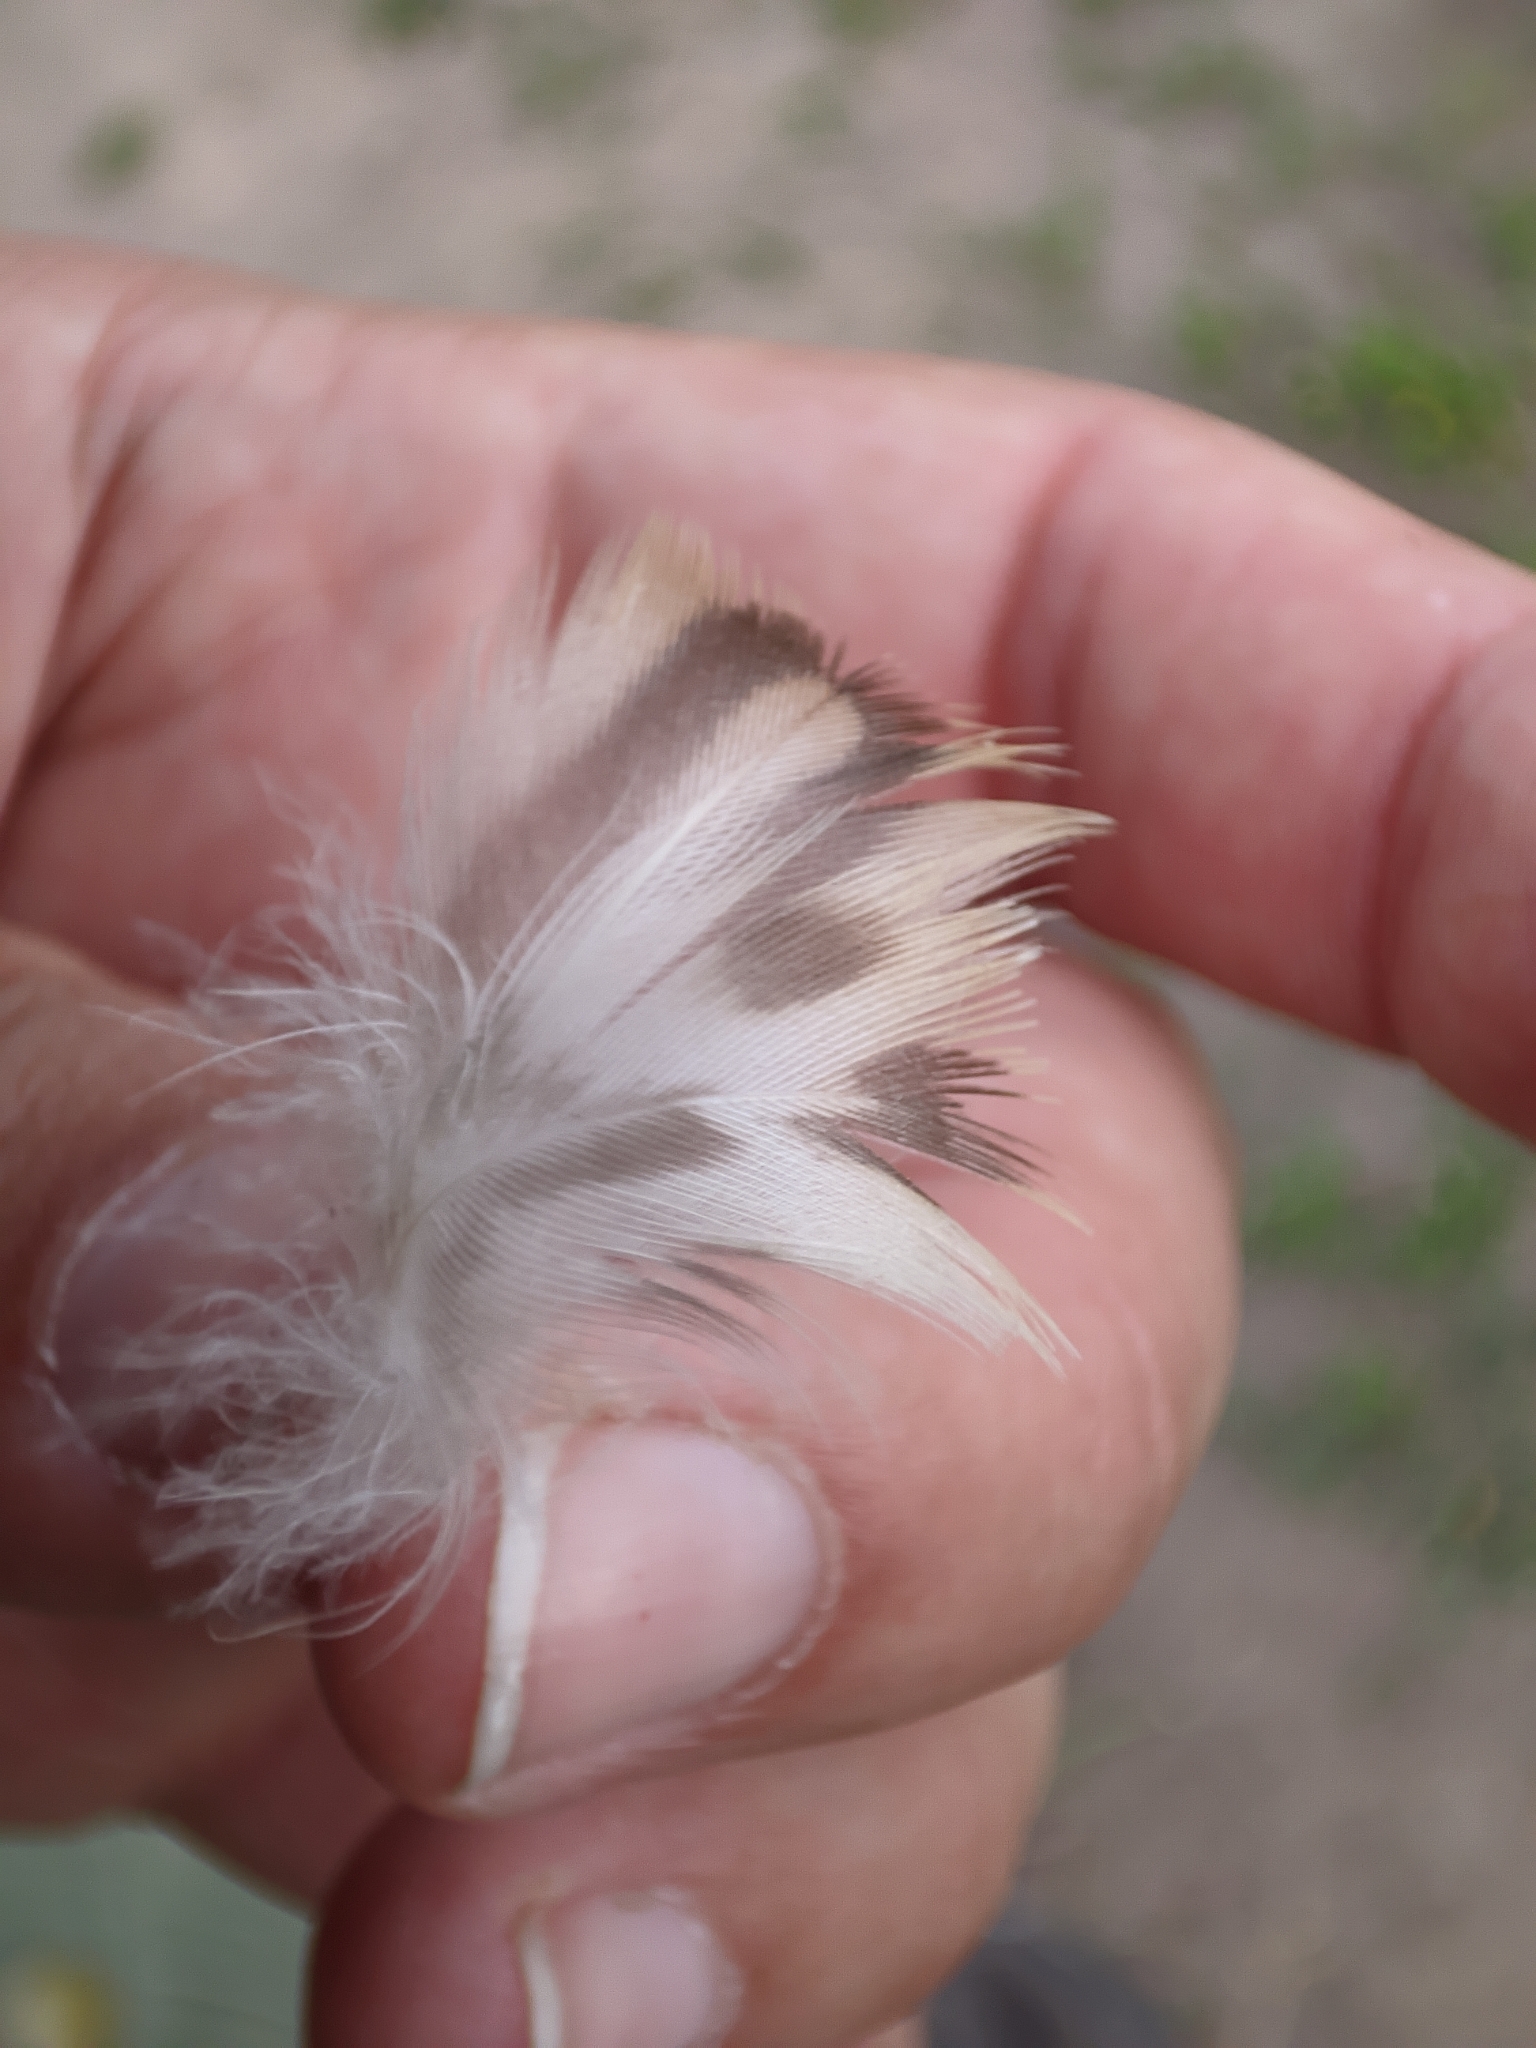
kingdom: Animalia
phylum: Chordata
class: Aves
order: Anseriformes
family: Anatidae
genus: Anas
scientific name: Anas platyrhynchos
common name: Mallard
